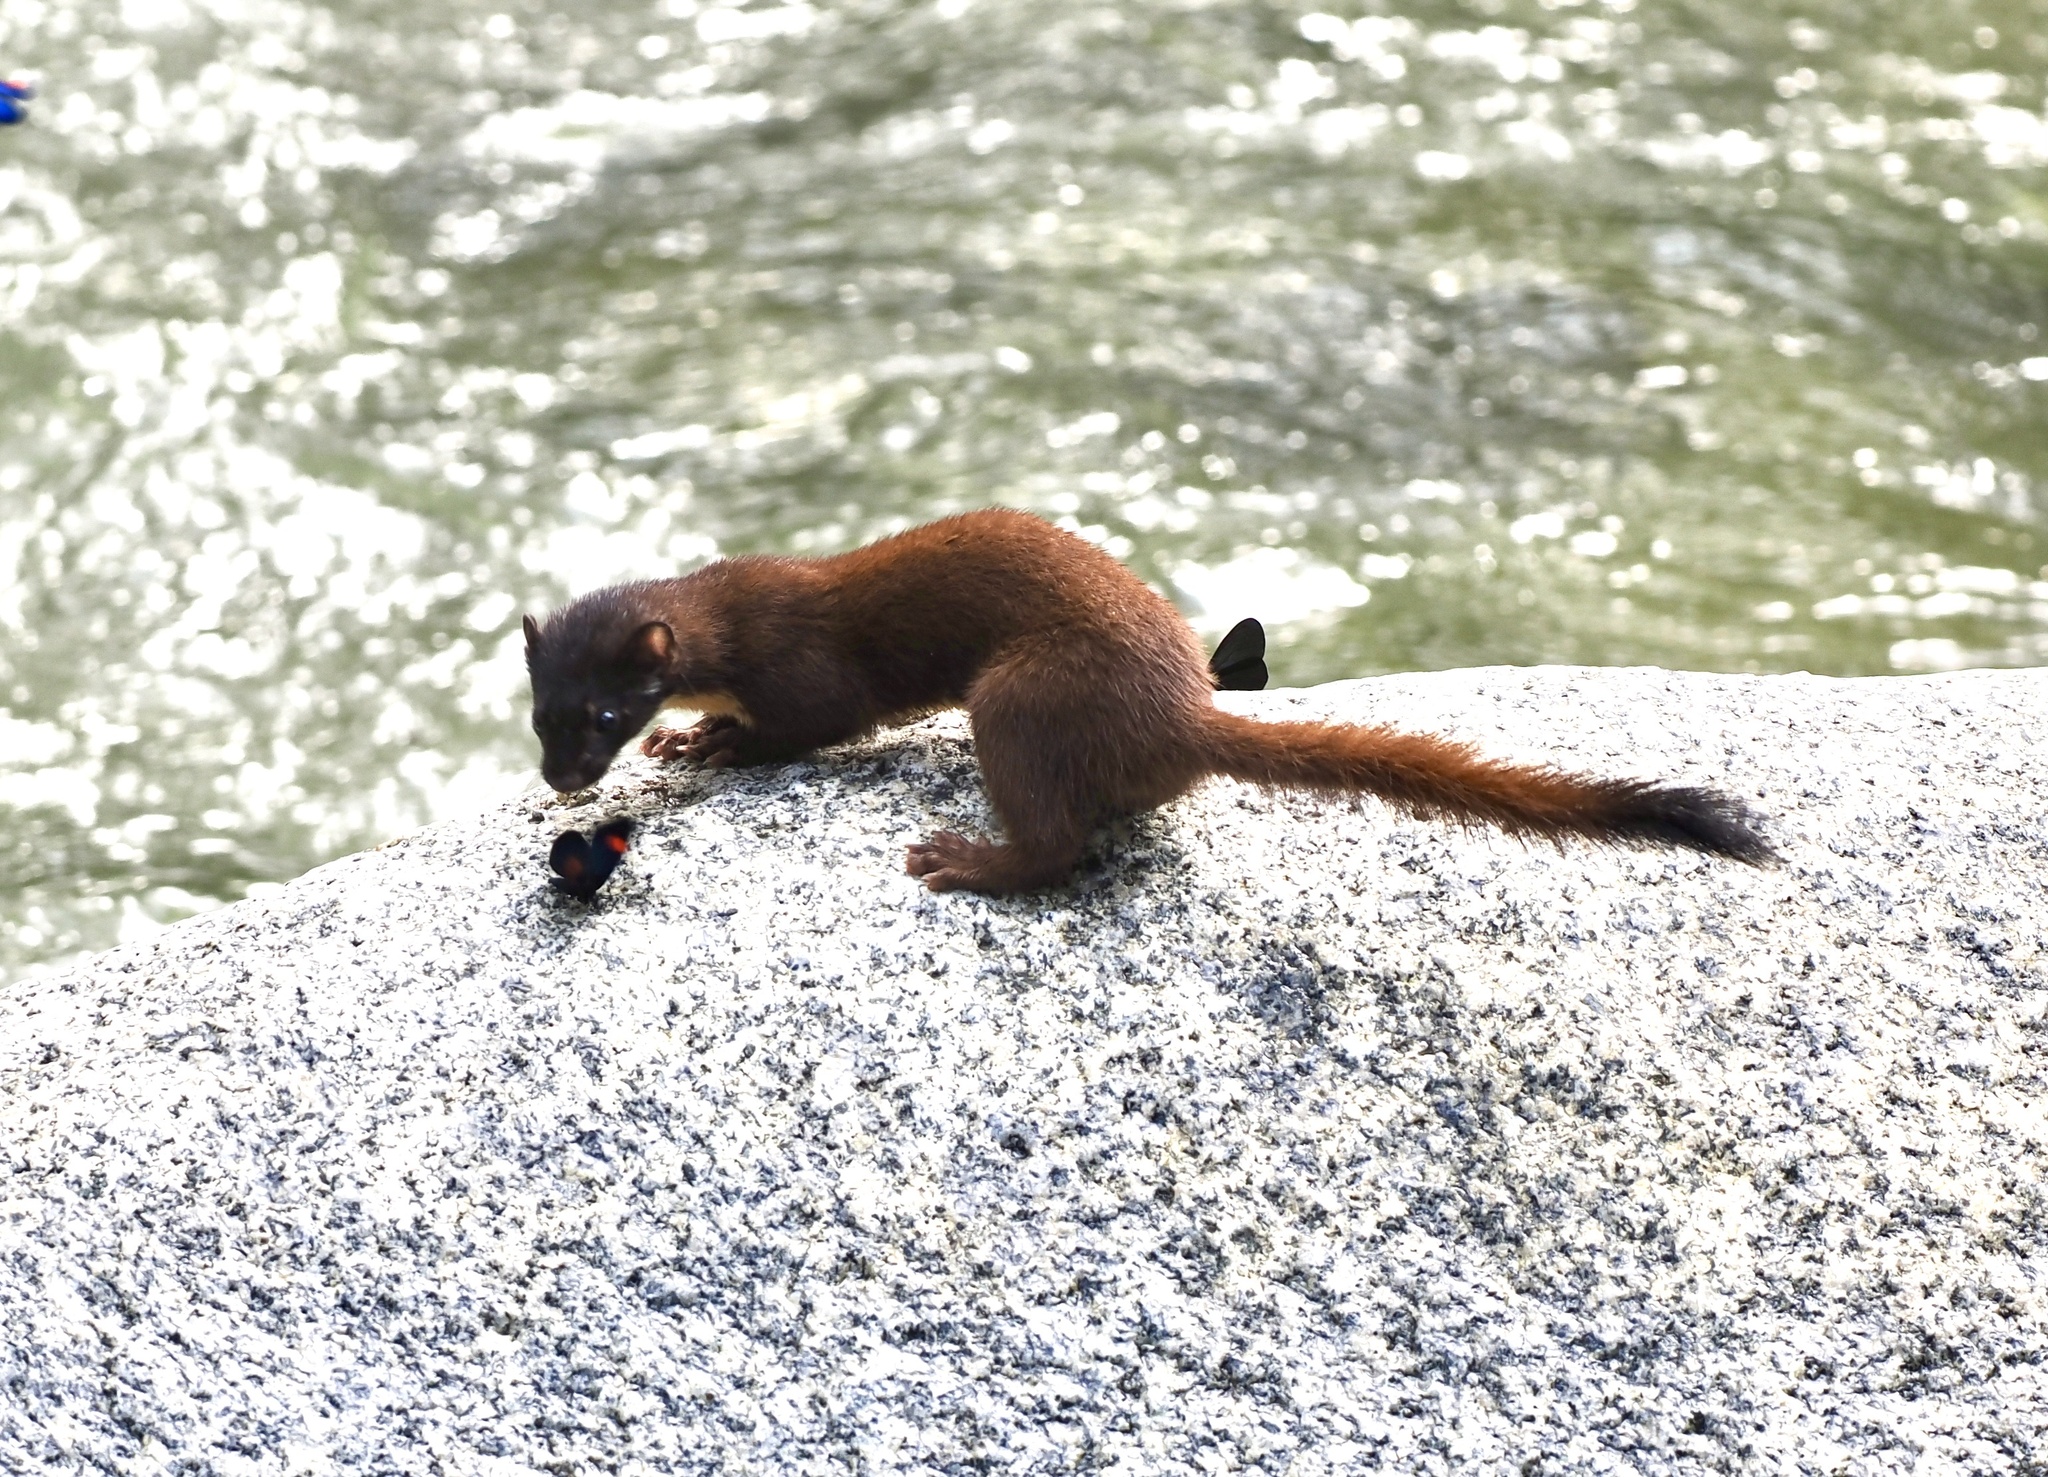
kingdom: Animalia
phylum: Chordata
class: Mammalia
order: Carnivora
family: Mustelidae
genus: Mustela
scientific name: Mustela
